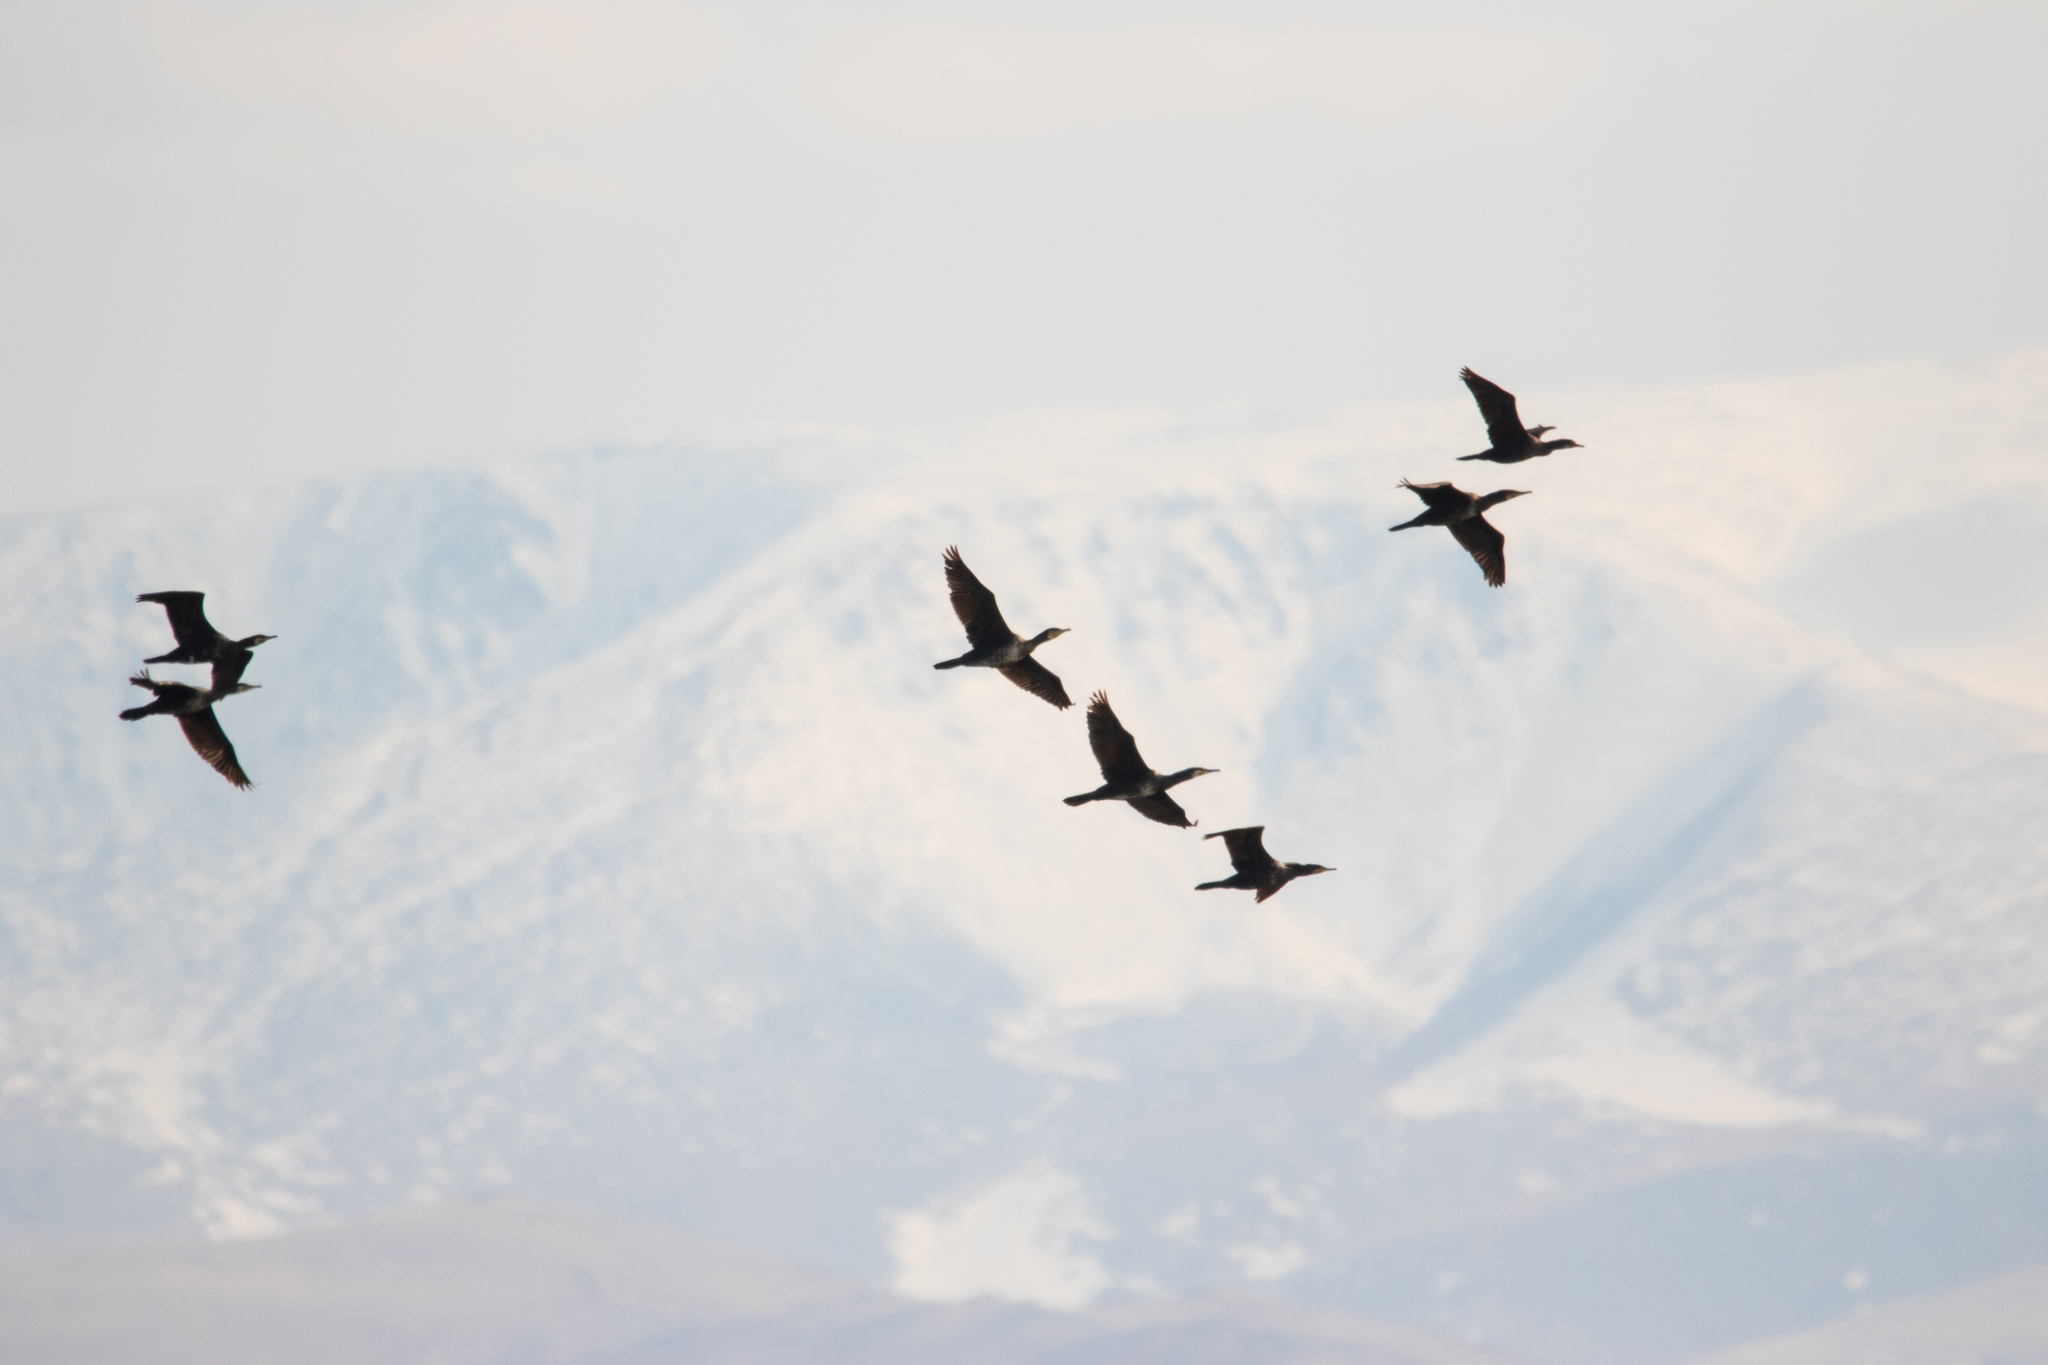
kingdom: Animalia
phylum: Chordata
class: Aves
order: Suliformes
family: Phalacrocoracidae
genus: Phalacrocorax
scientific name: Phalacrocorax carbo
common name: Great cormorant
